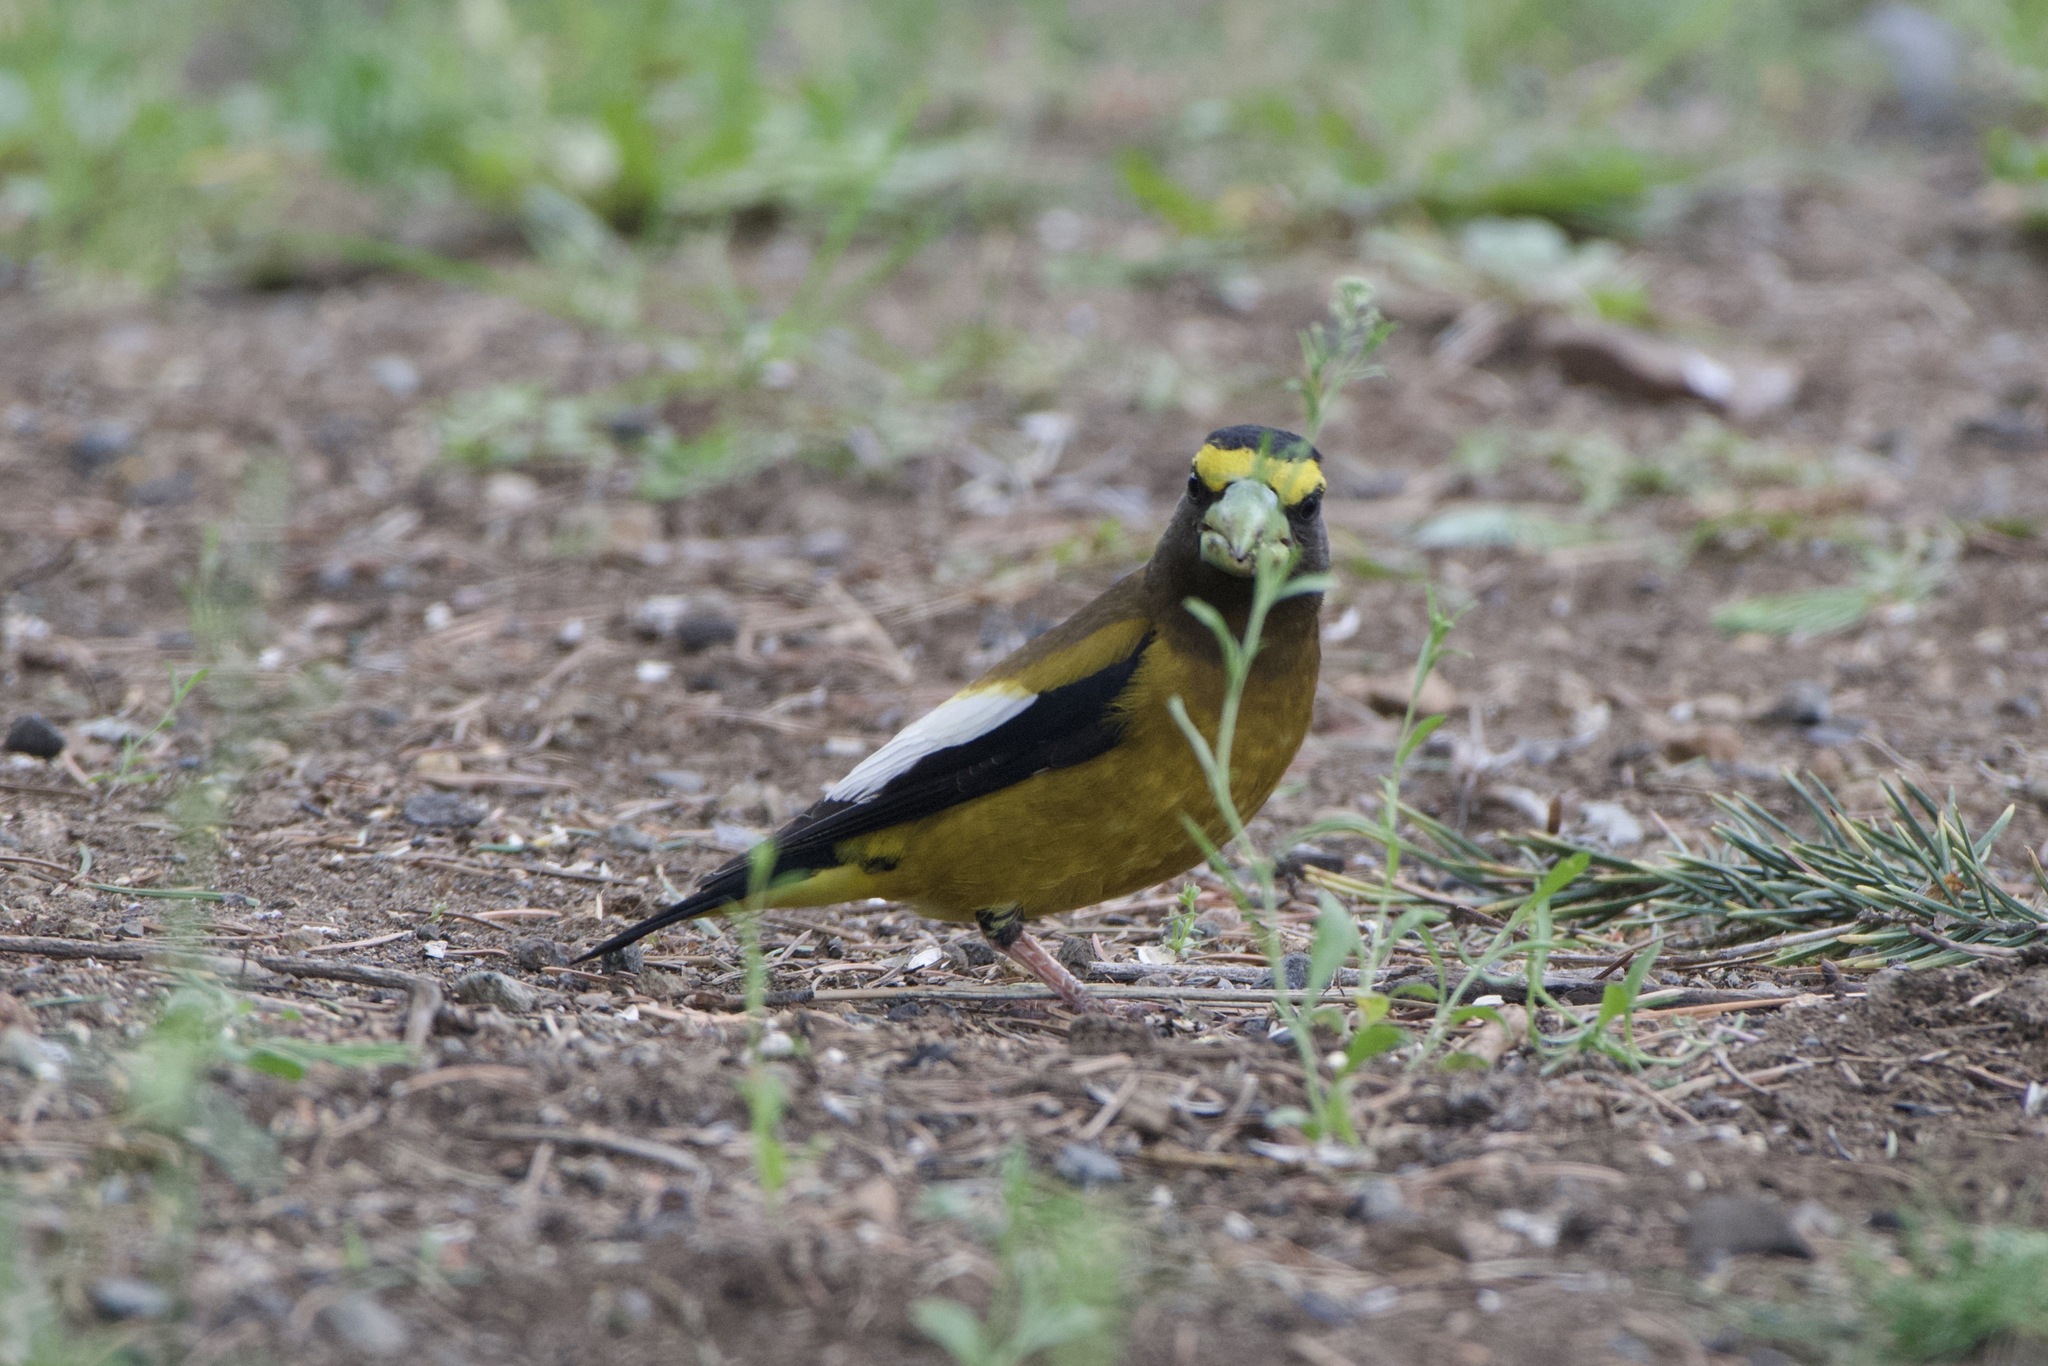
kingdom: Animalia
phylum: Chordata
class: Aves
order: Passeriformes
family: Fringillidae
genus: Hesperiphona
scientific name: Hesperiphona vespertina
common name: Evening grosbeak
